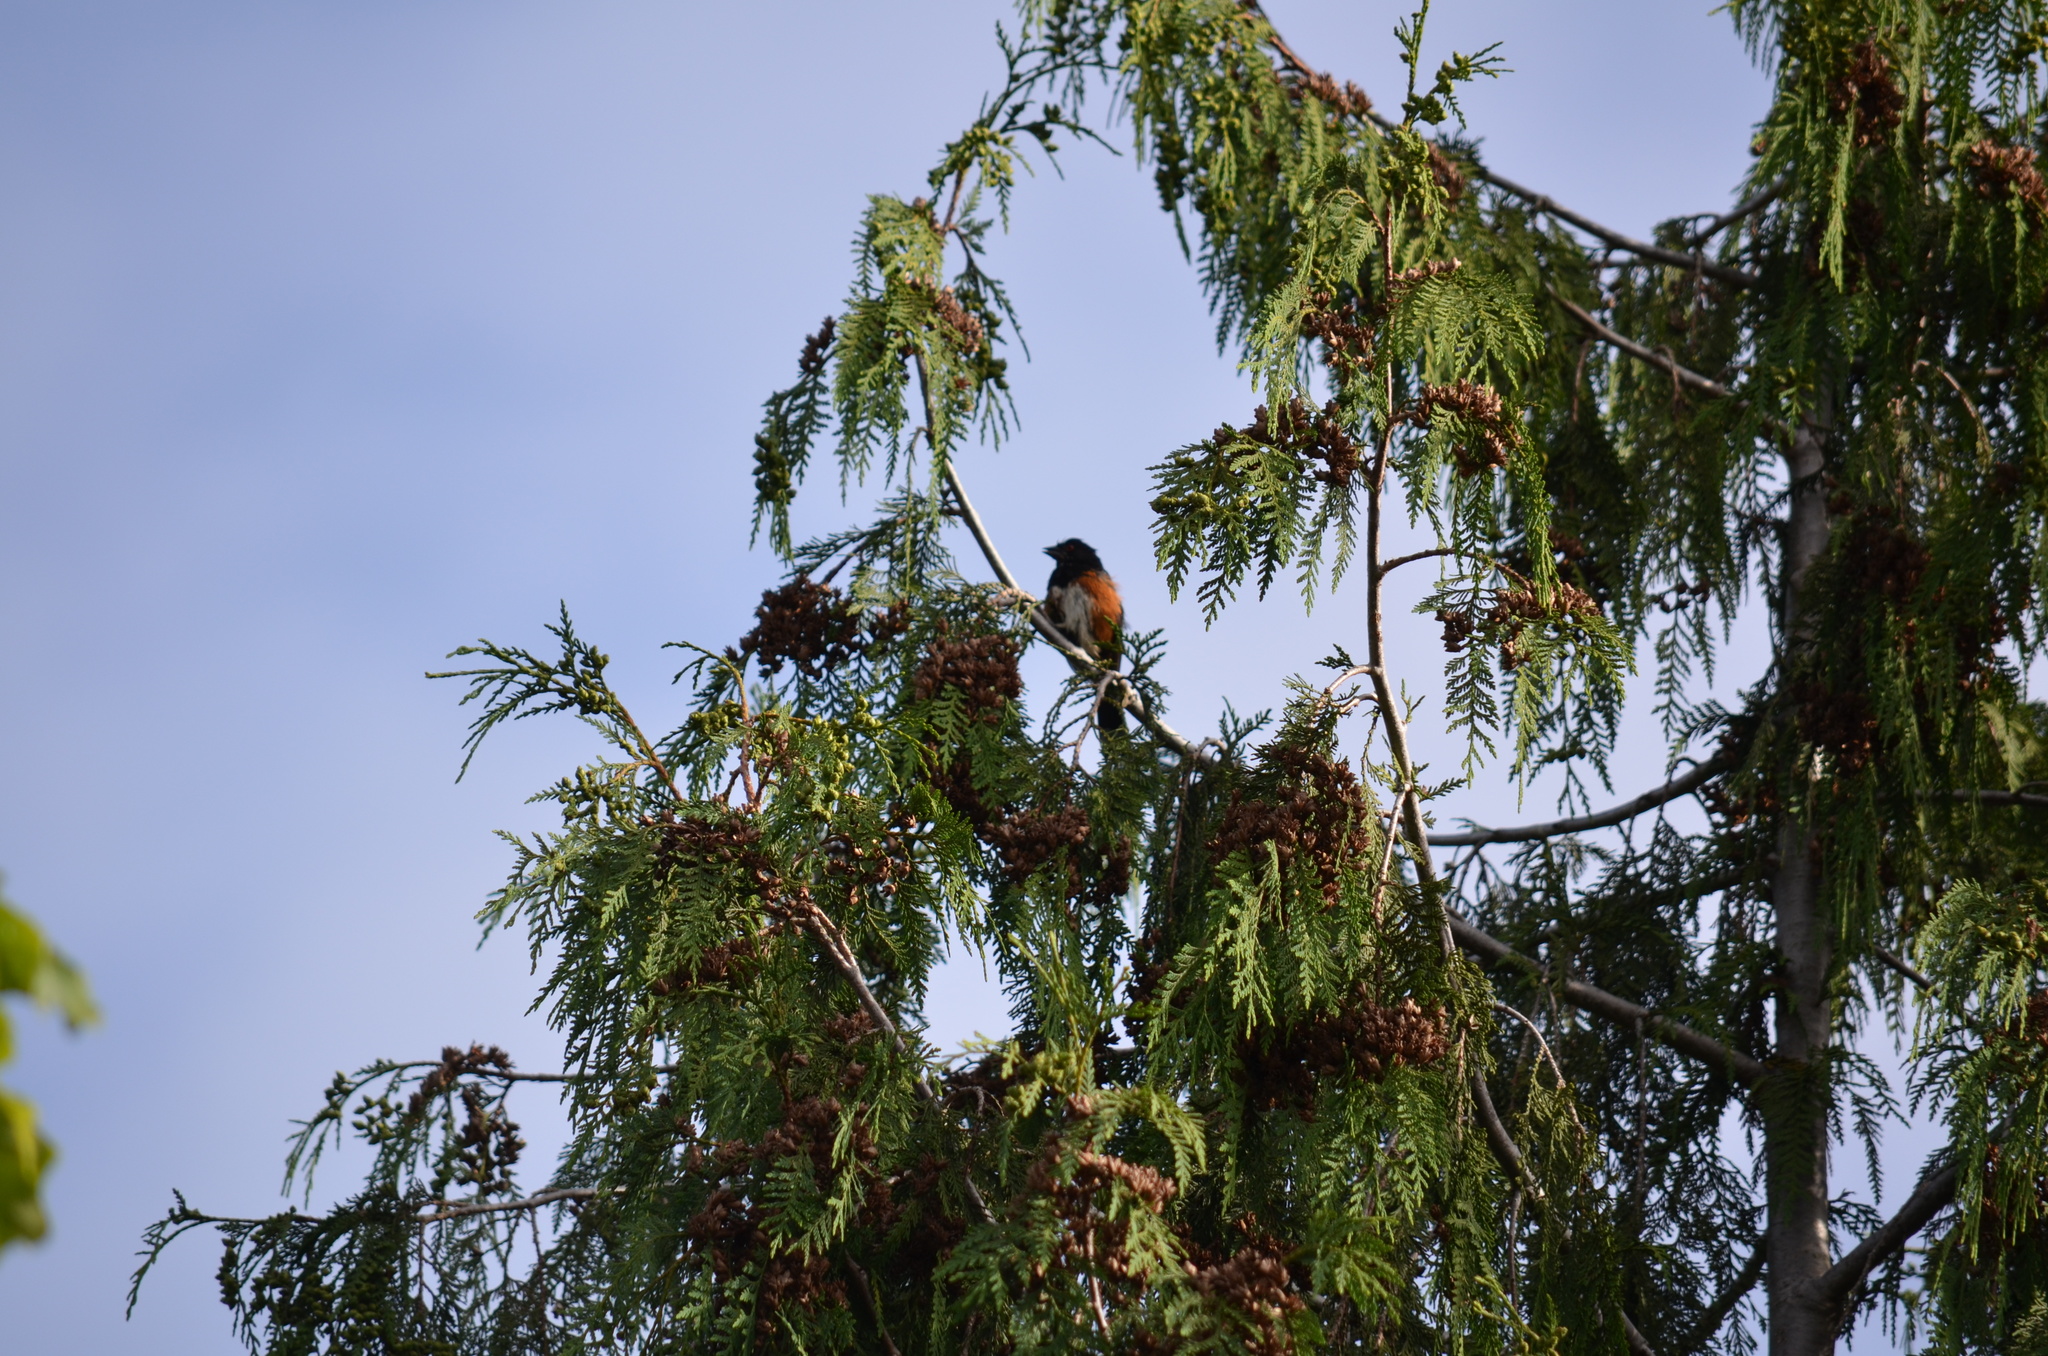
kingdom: Animalia
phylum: Chordata
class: Aves
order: Passeriformes
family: Passerellidae
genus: Pipilo
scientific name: Pipilo maculatus
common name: Spotted towhee
